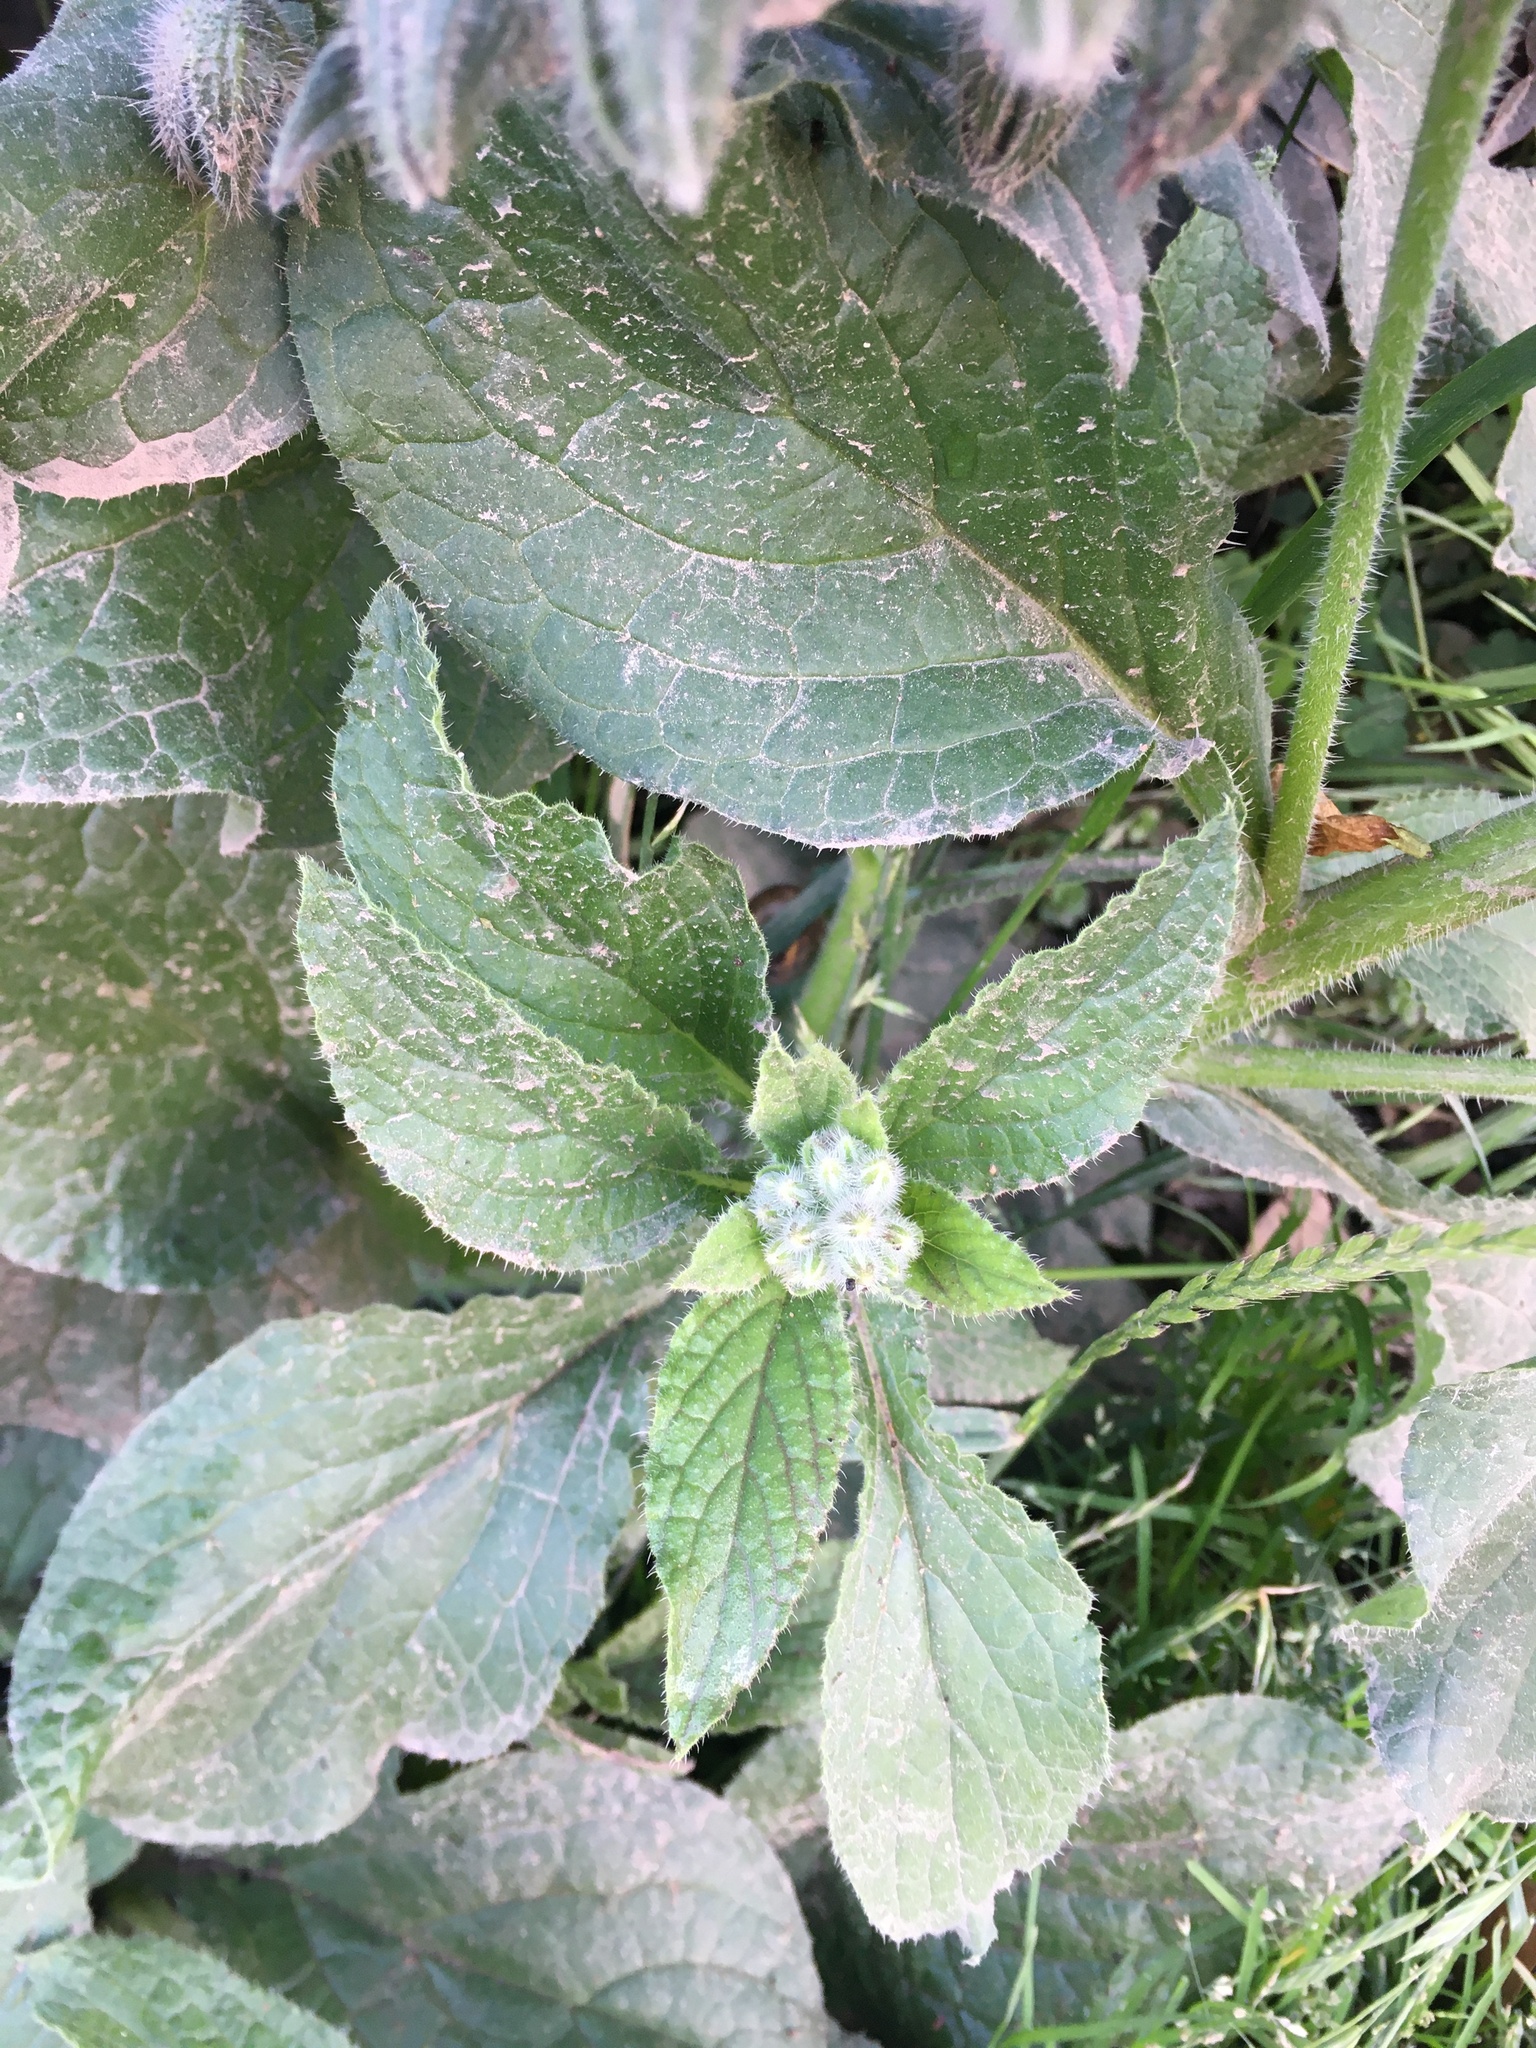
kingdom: Plantae
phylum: Tracheophyta
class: Magnoliopsida
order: Boraginales
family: Boraginaceae
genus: Borago
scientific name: Borago officinalis
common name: Borage
